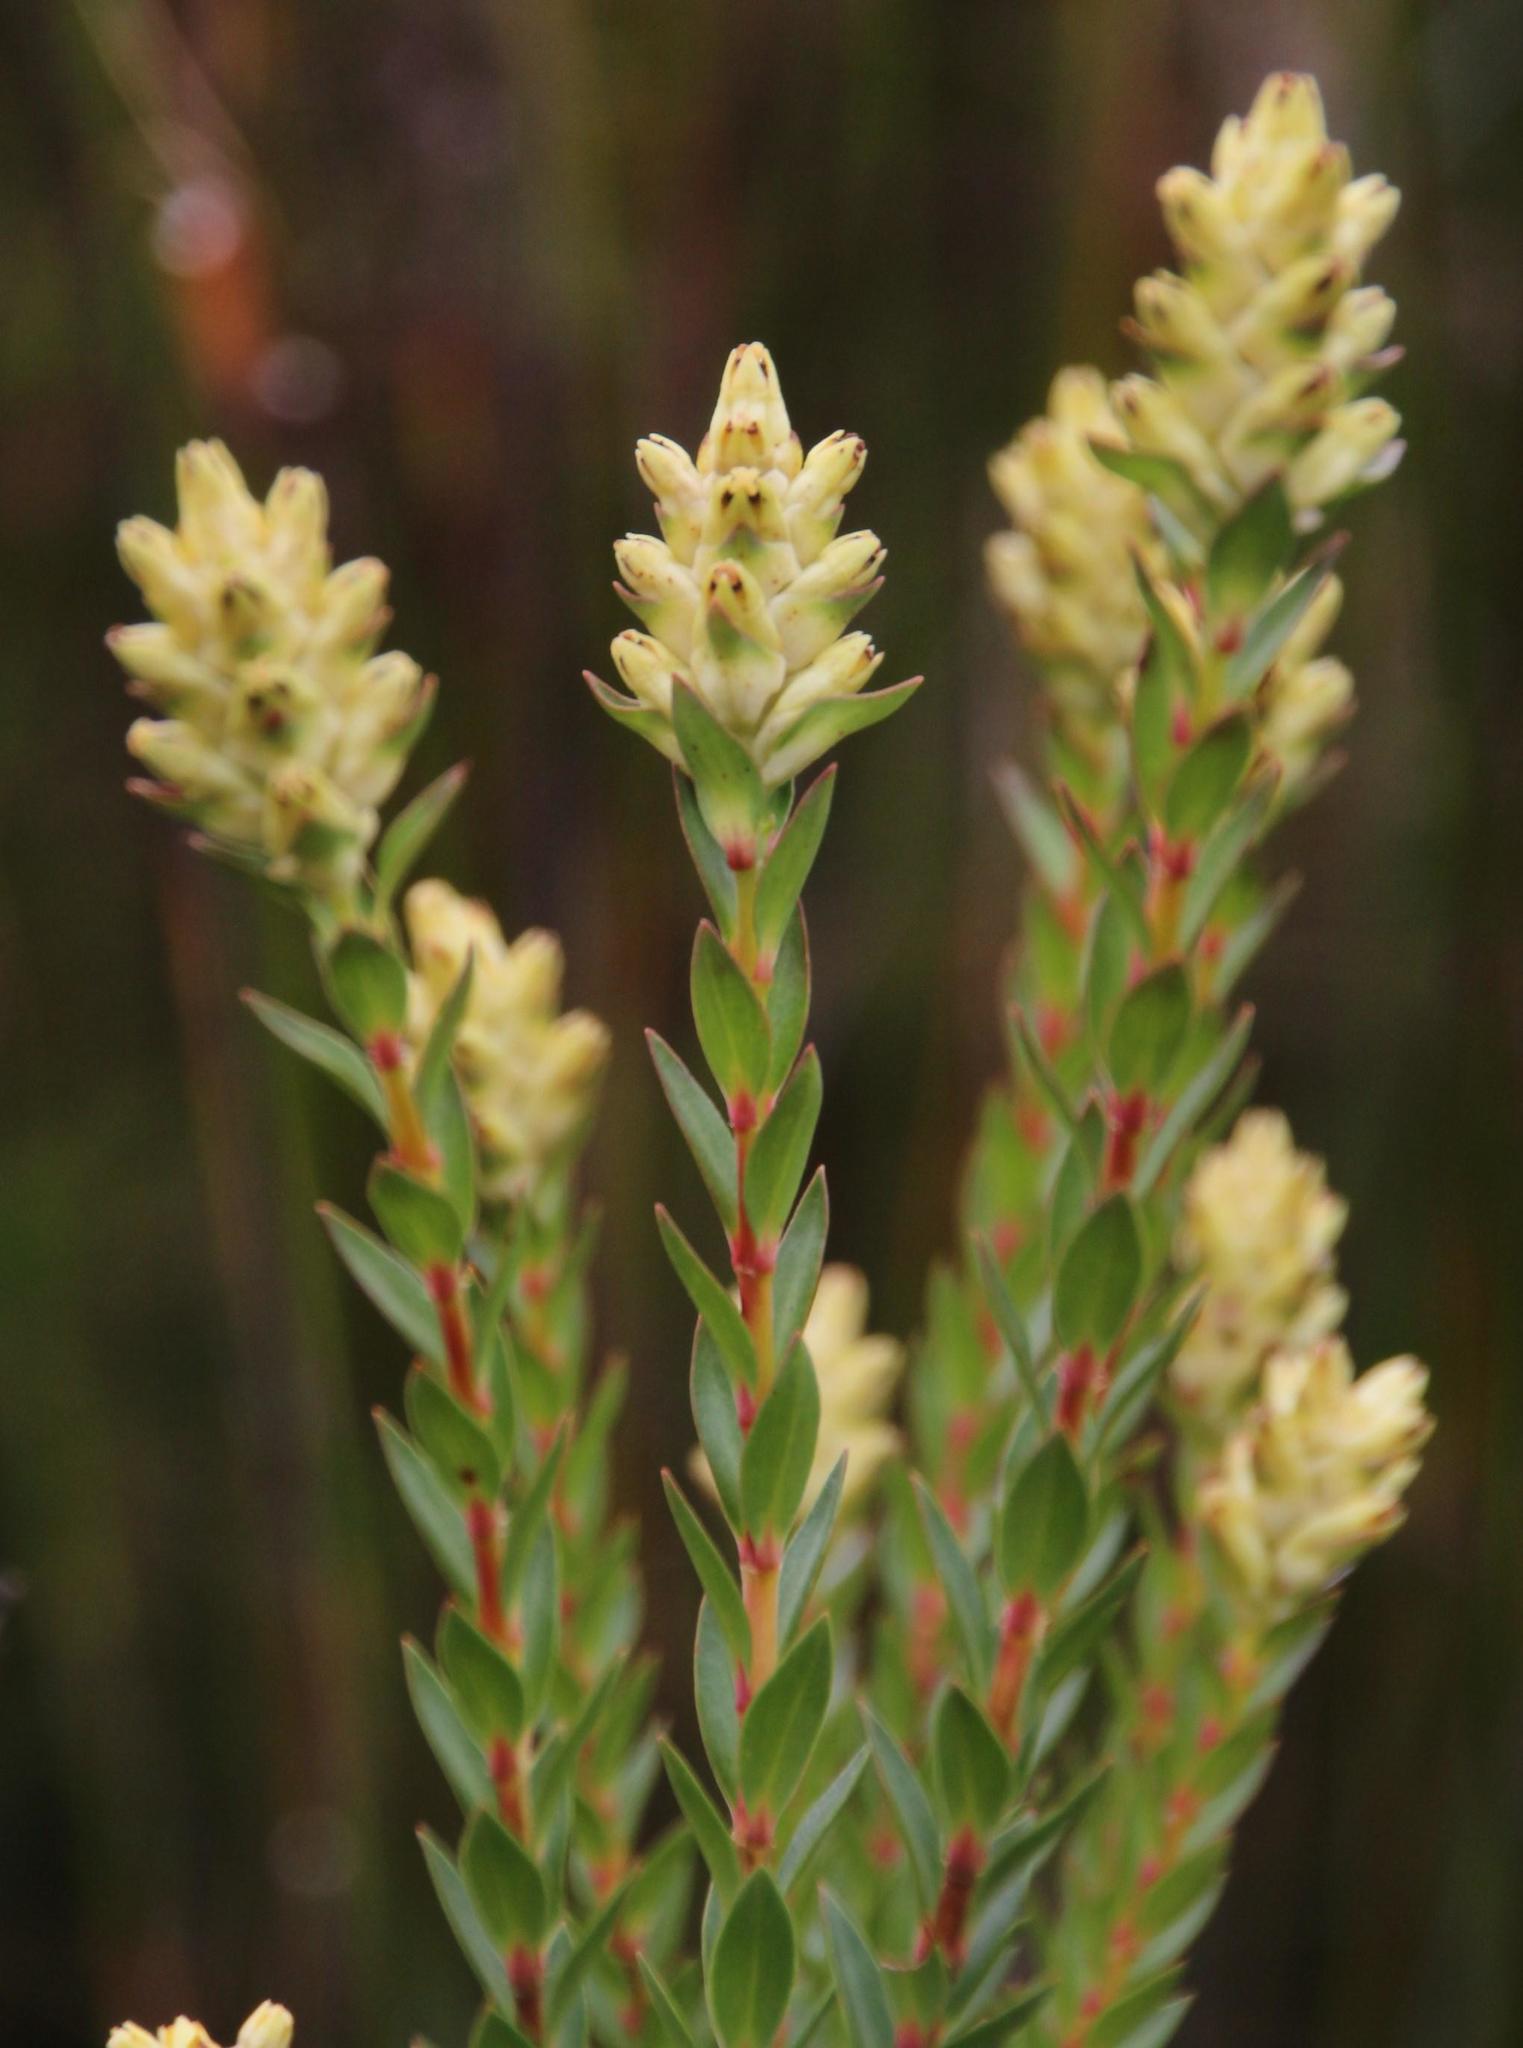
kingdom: Plantae
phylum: Tracheophyta
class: Magnoliopsida
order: Myrtales
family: Penaeaceae
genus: Penaea
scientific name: Penaea cneorum
